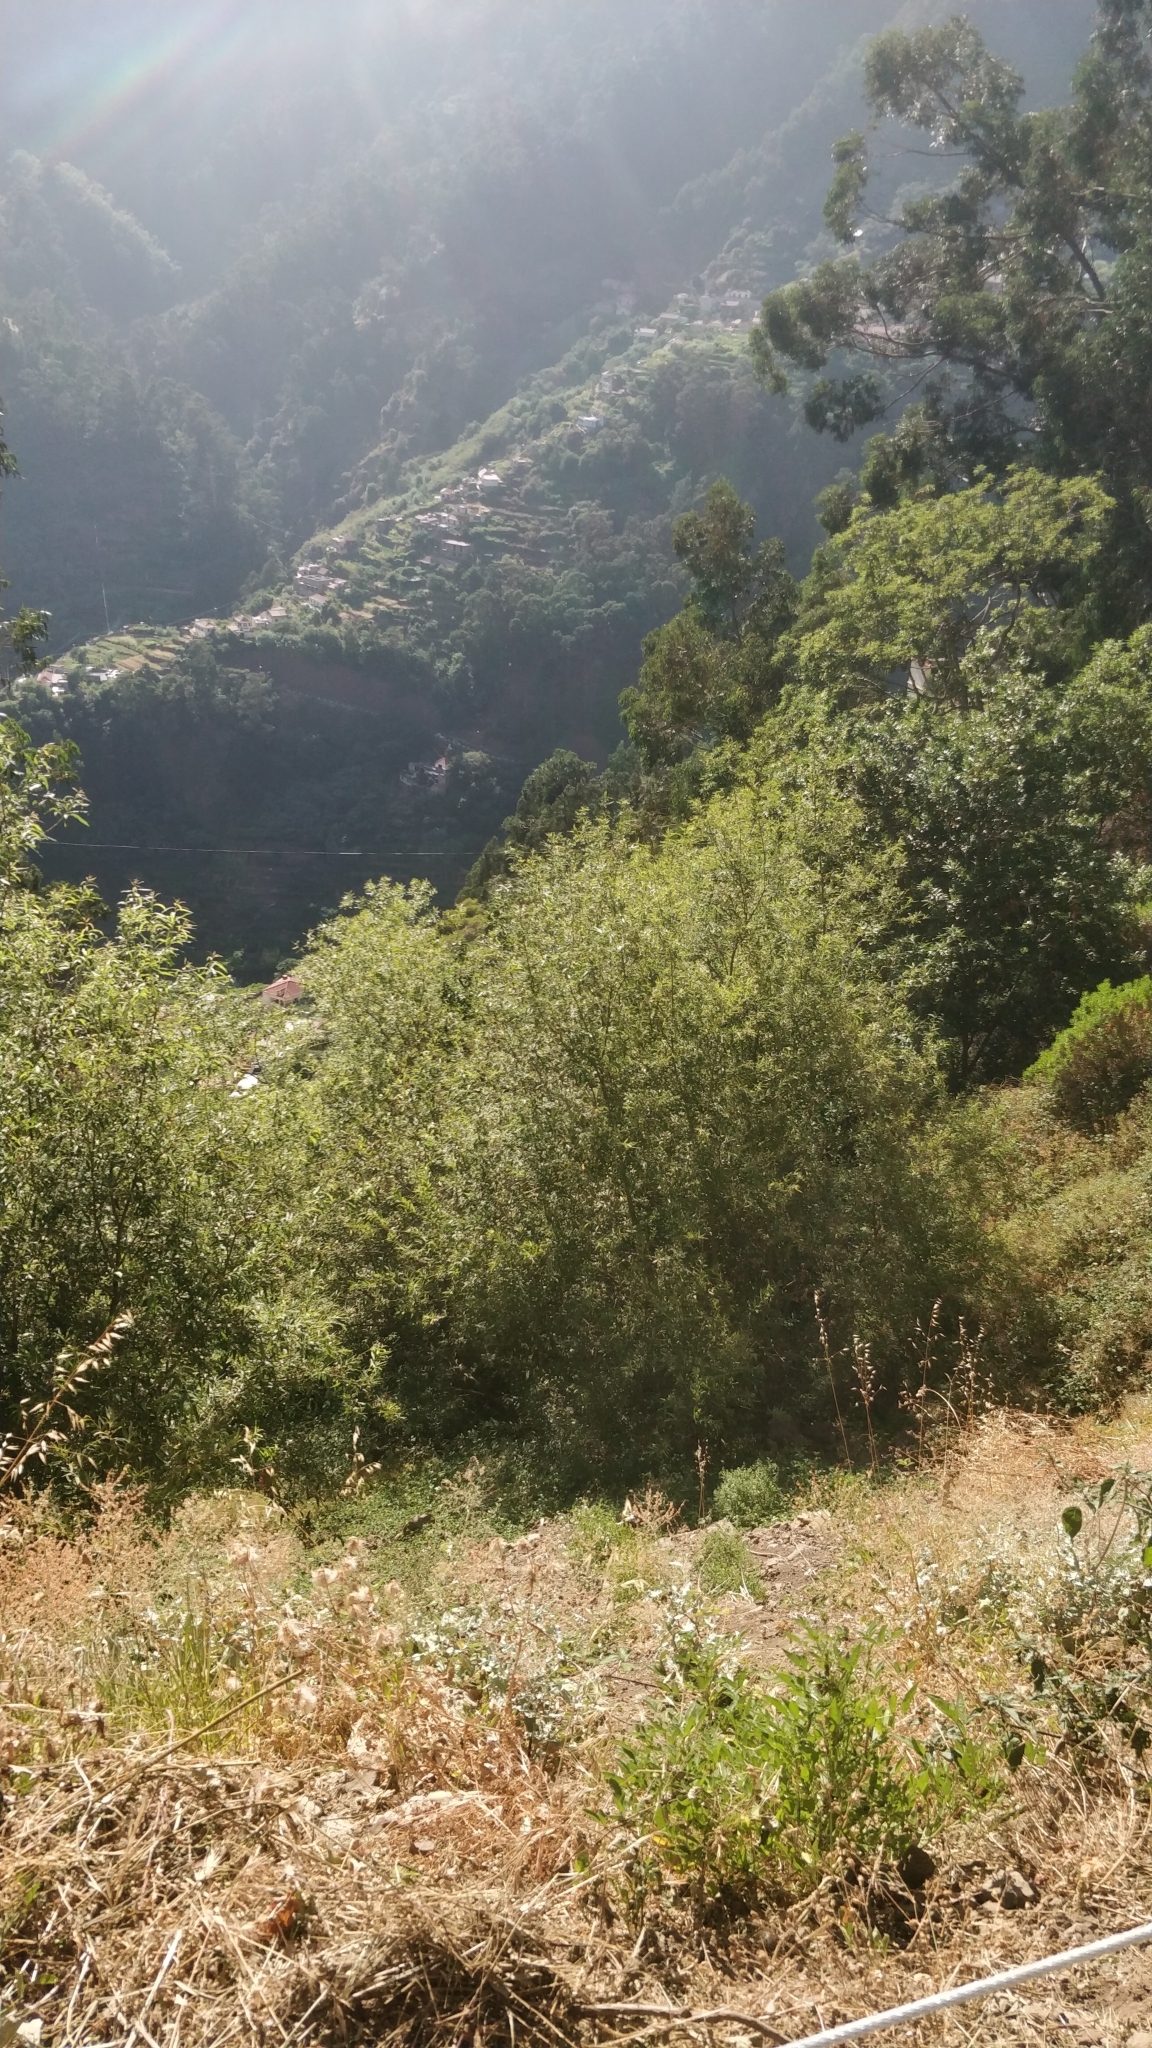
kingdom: Plantae
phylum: Tracheophyta
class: Magnoliopsida
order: Malpighiales
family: Salicaceae
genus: Salix
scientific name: Salix canariensis
